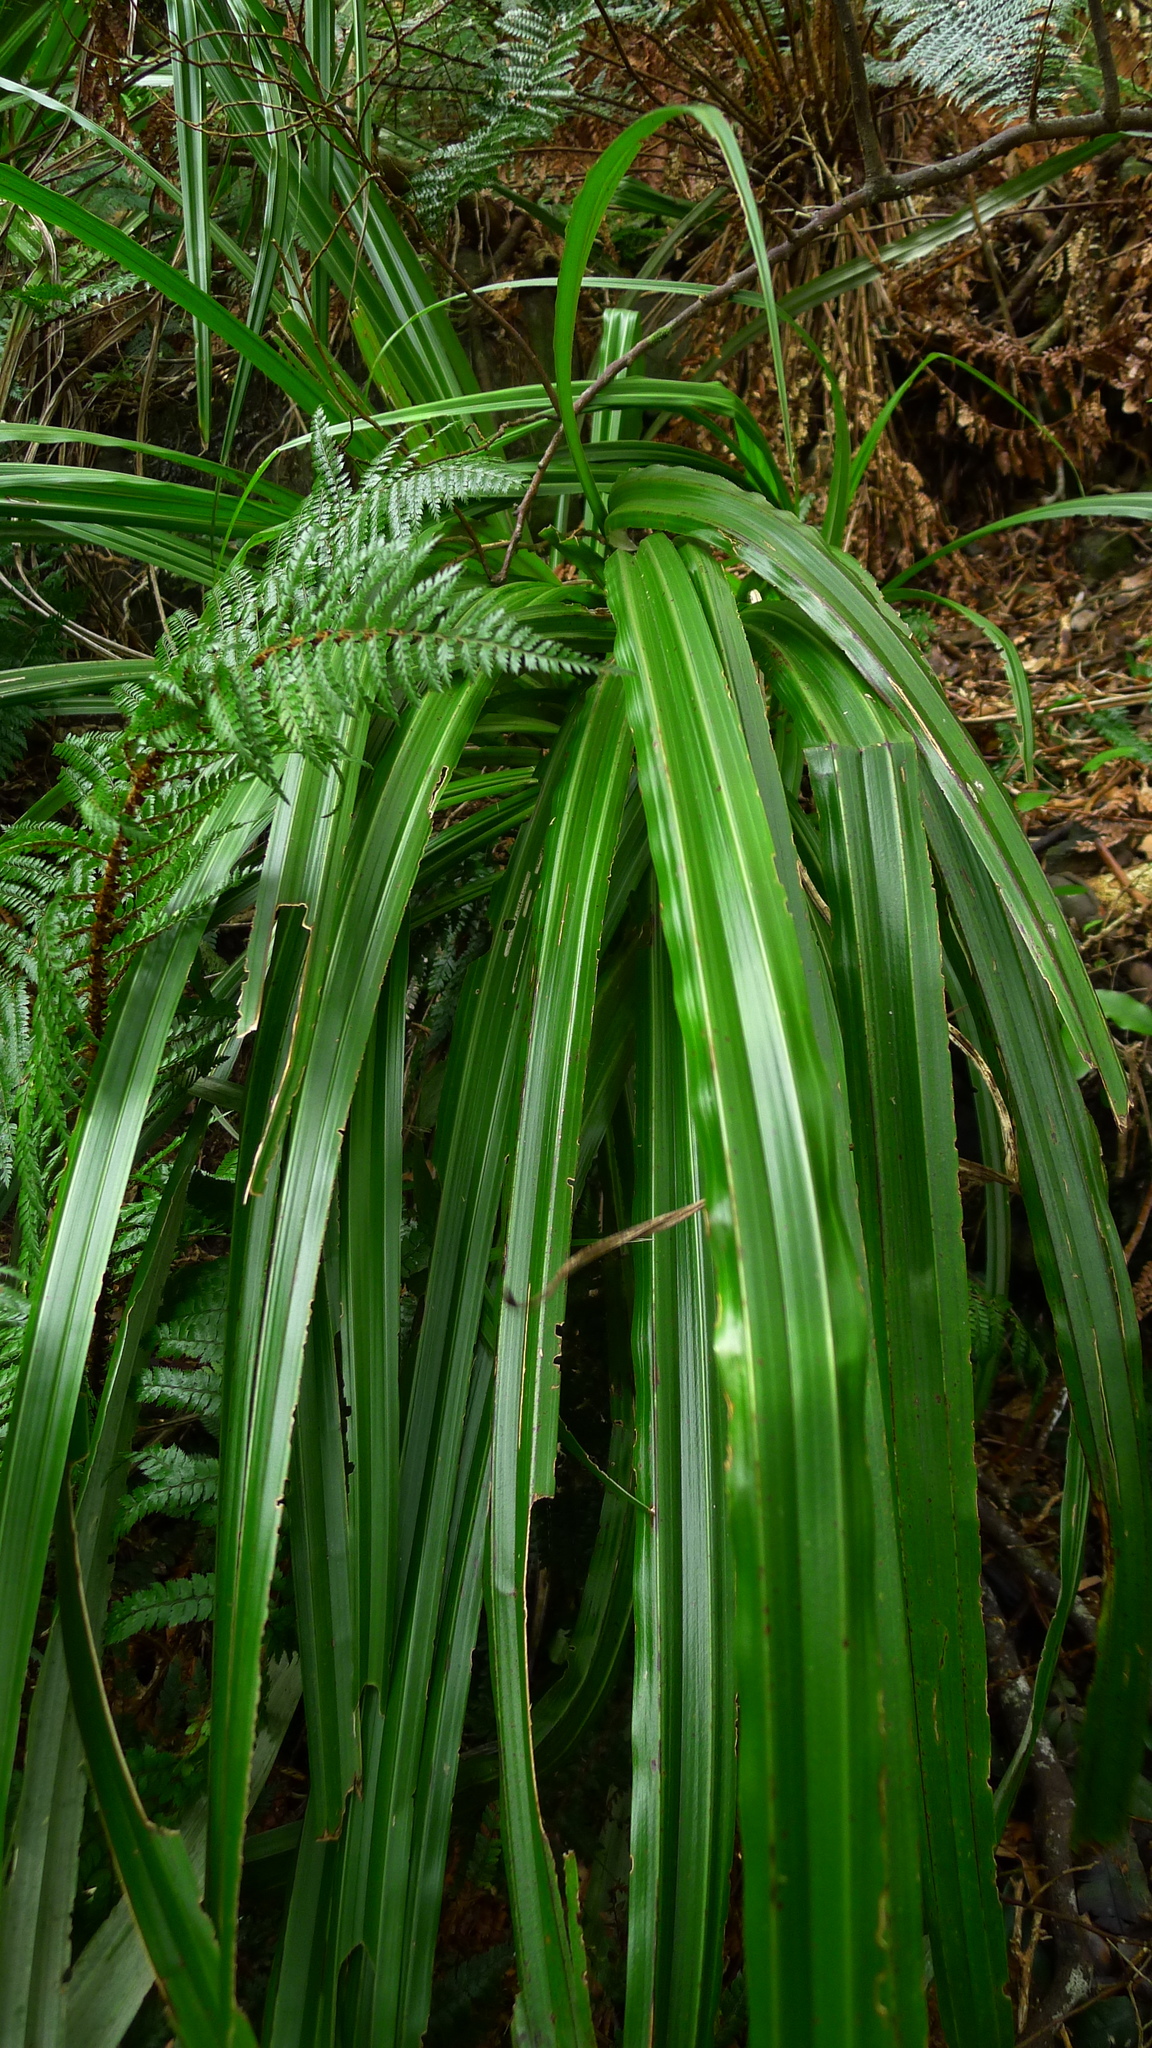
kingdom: Plantae
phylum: Tracheophyta
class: Liliopsida
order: Asparagales
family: Asteliaceae
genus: Astelia
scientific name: Astelia fragrans
